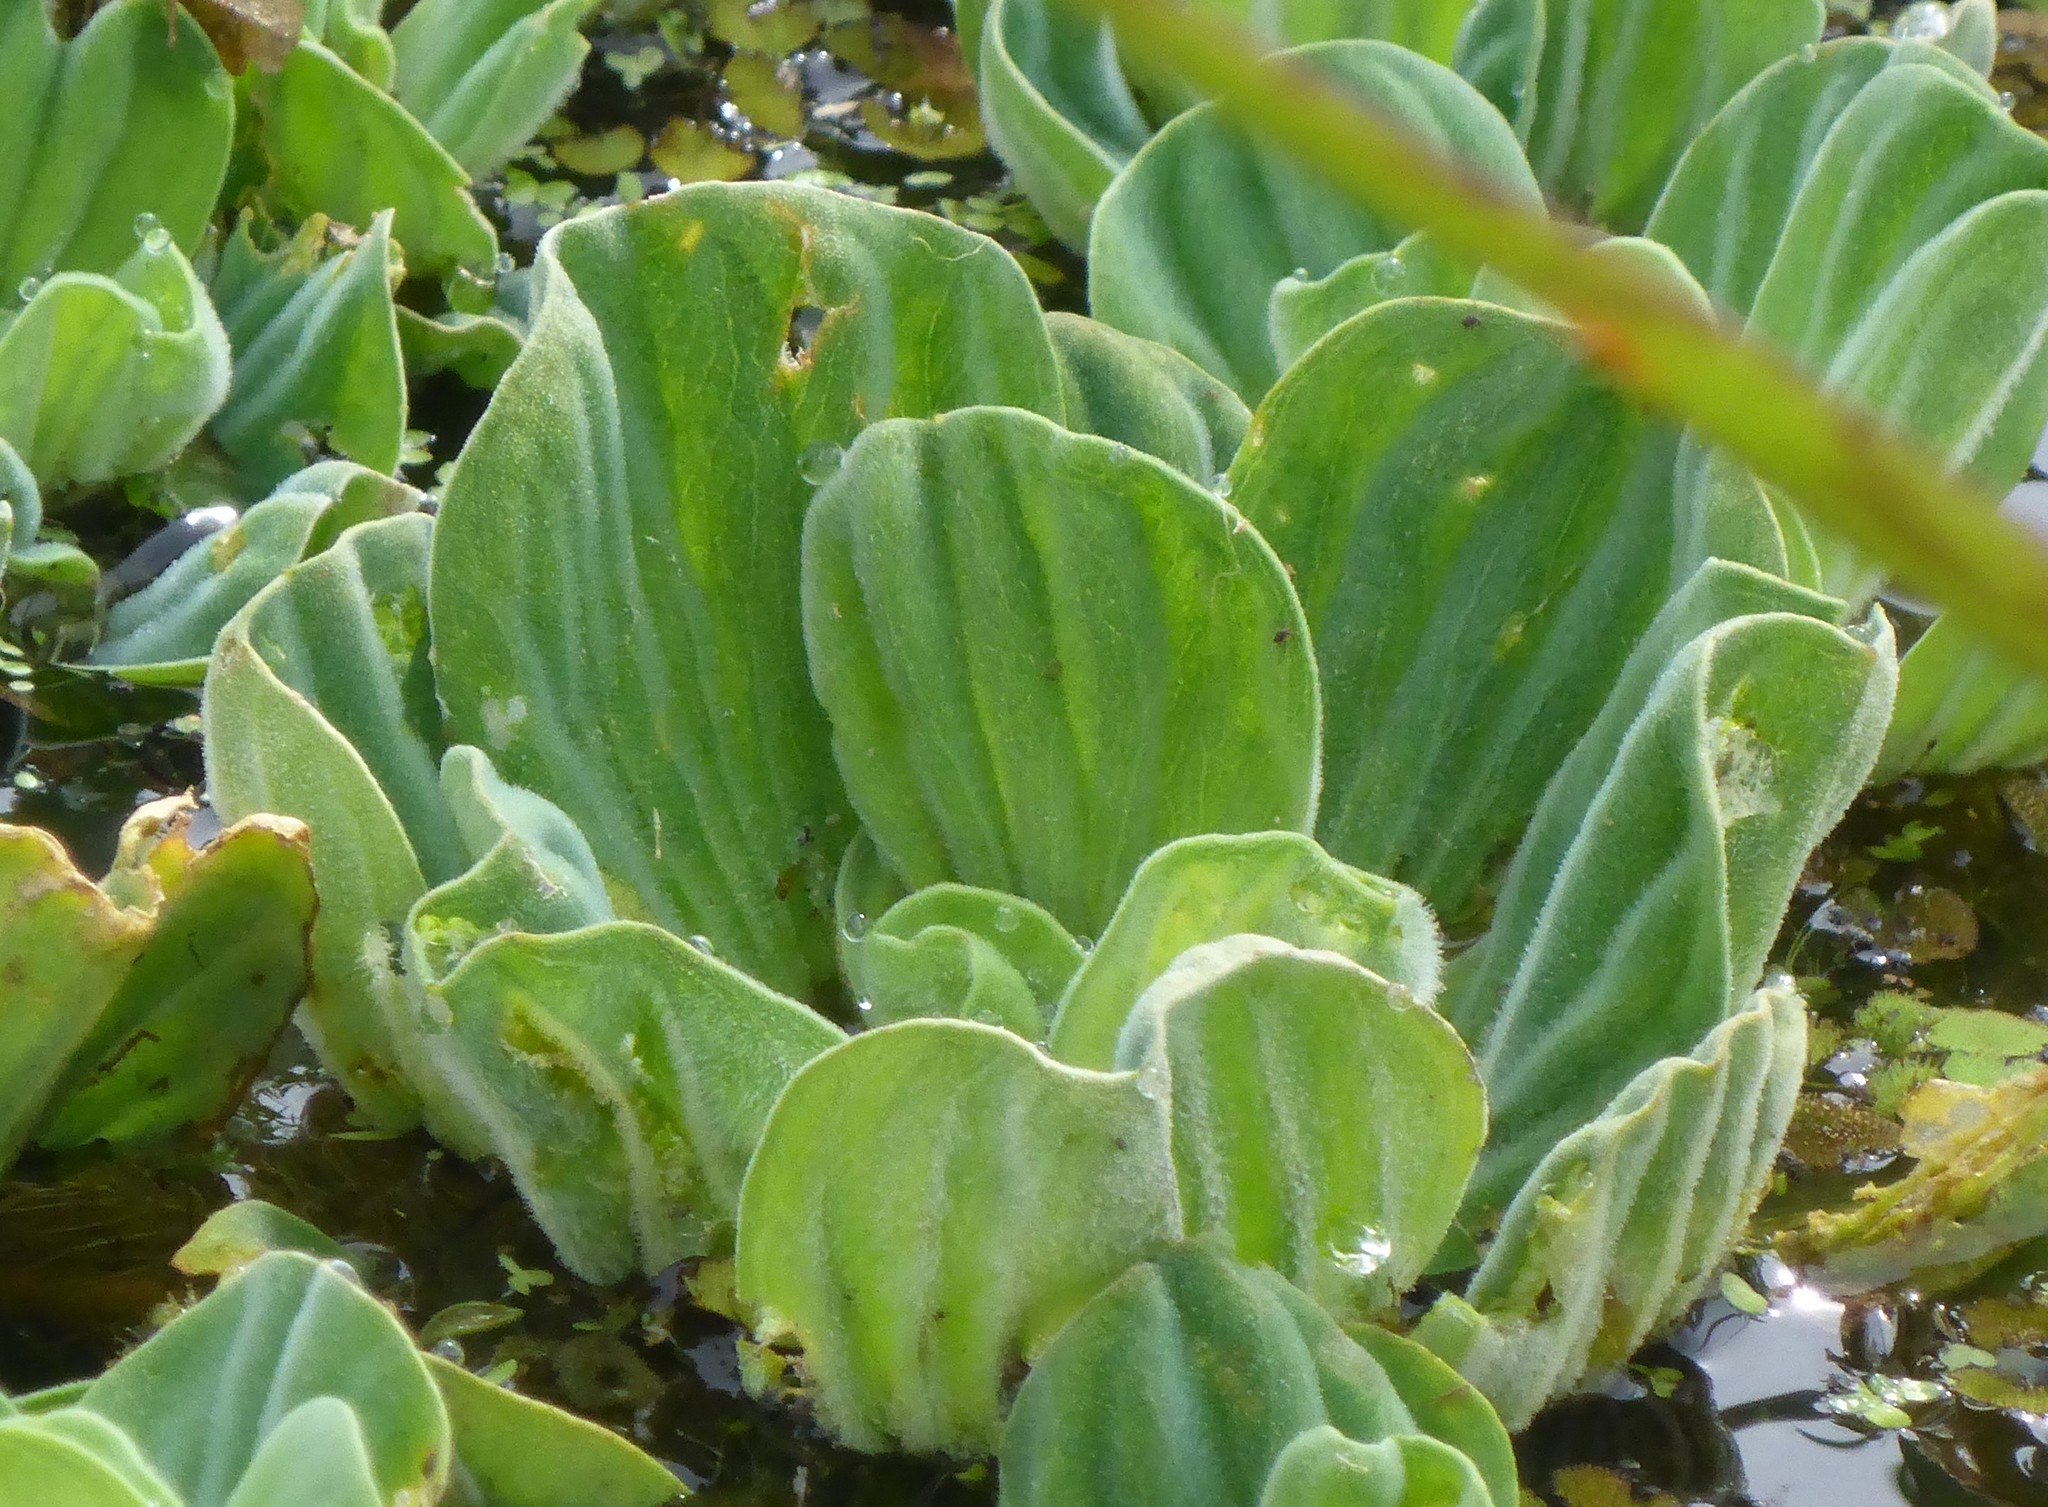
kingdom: Plantae
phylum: Tracheophyta
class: Liliopsida
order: Alismatales
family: Araceae
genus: Pistia
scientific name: Pistia stratiotes
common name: Water lettuce
